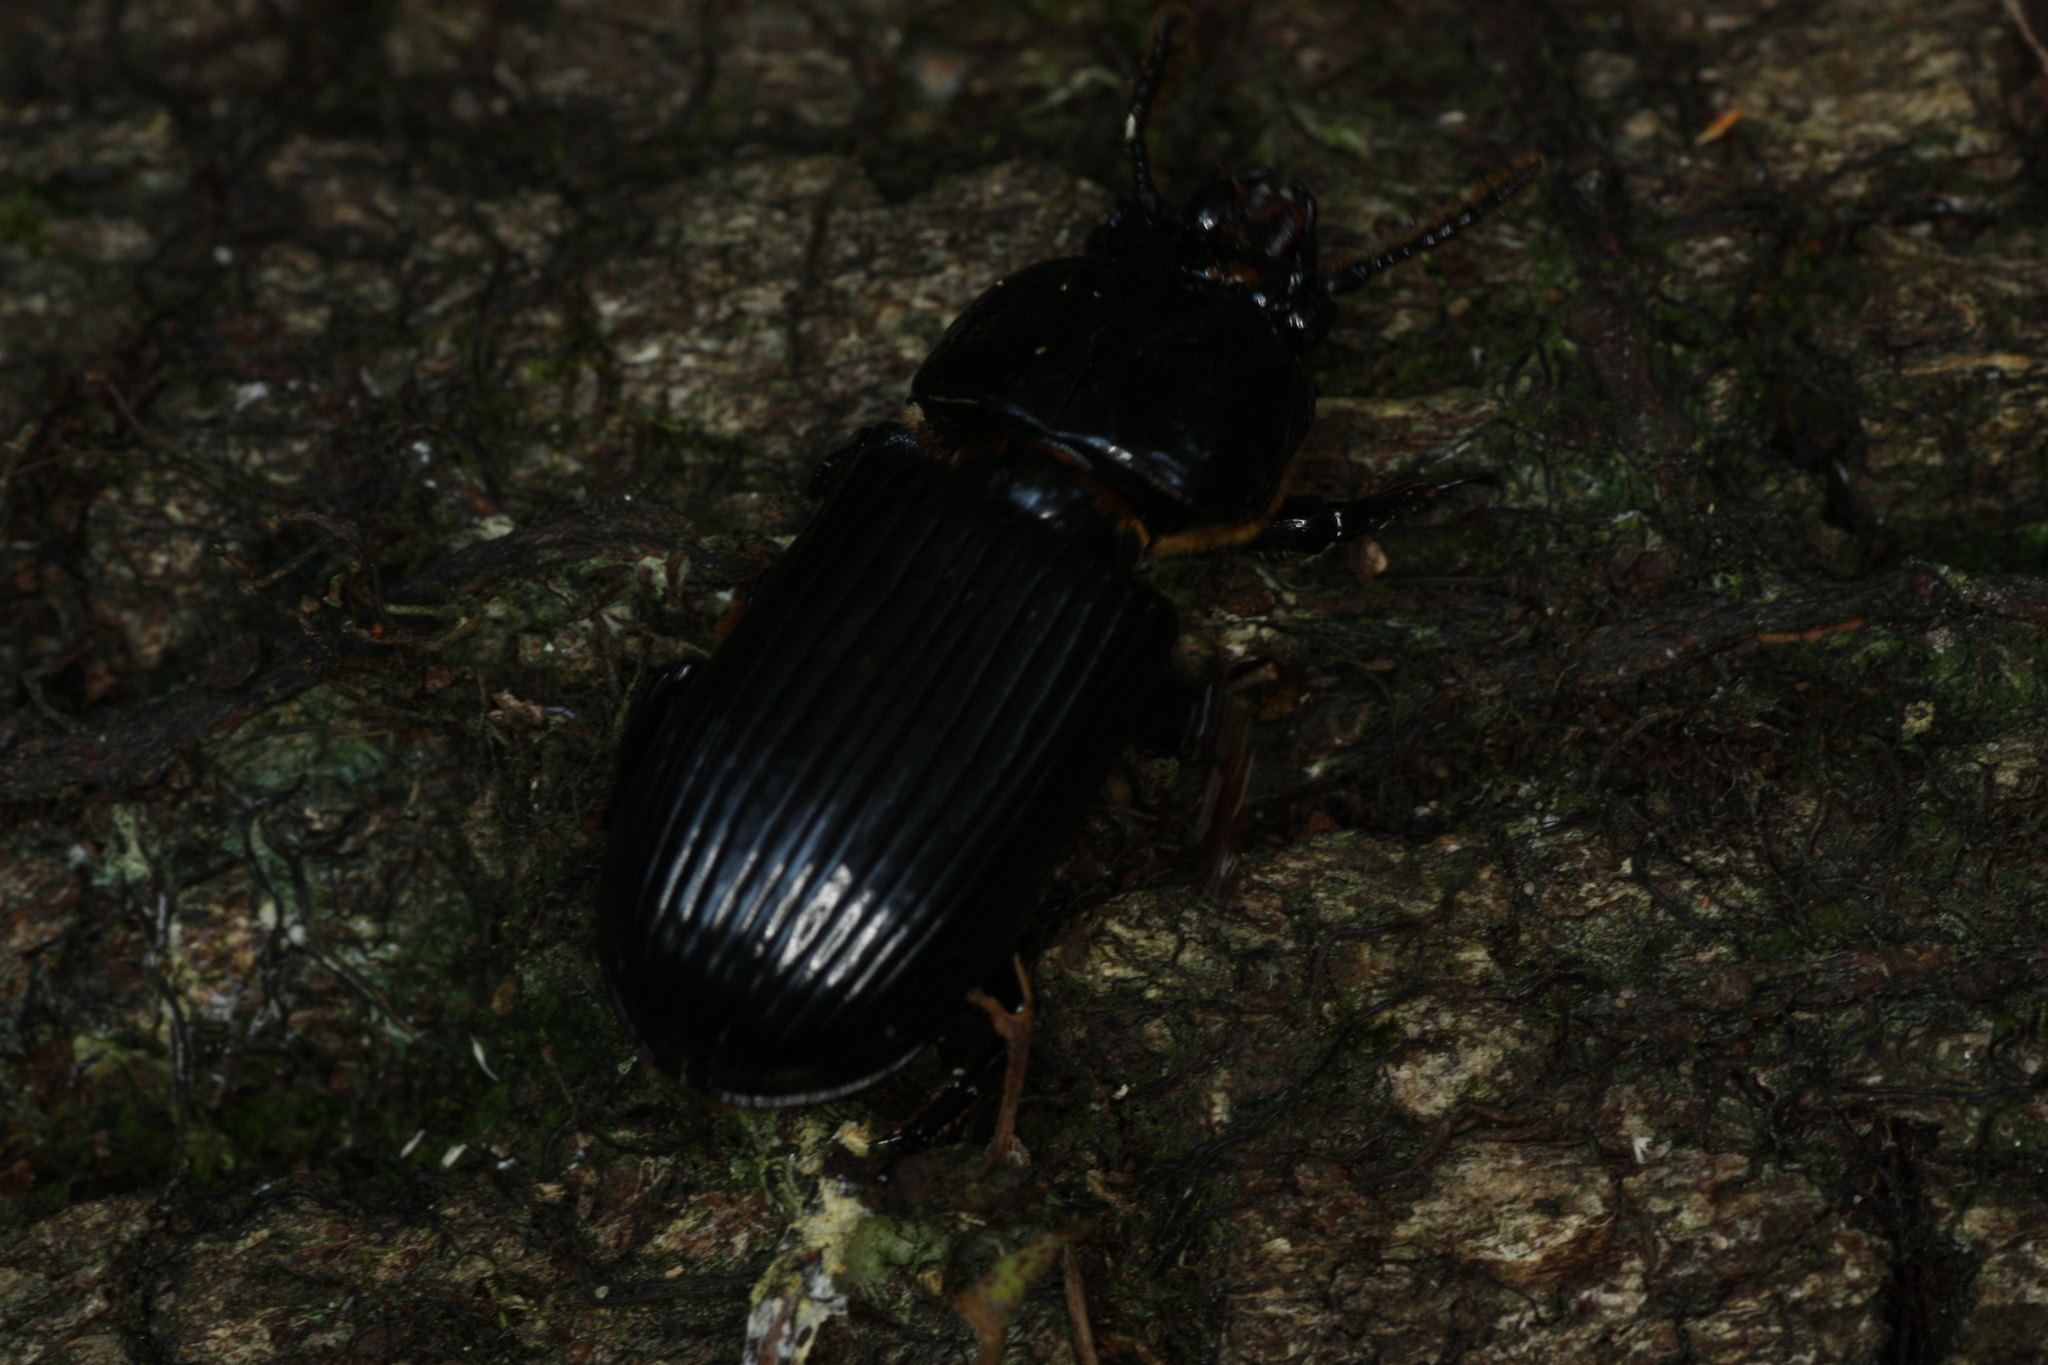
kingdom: Animalia
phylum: Arthropoda
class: Insecta
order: Coleoptera
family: Passalidae
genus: Odontotaenius
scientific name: Odontotaenius disjunctus
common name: Patent leather beetle
